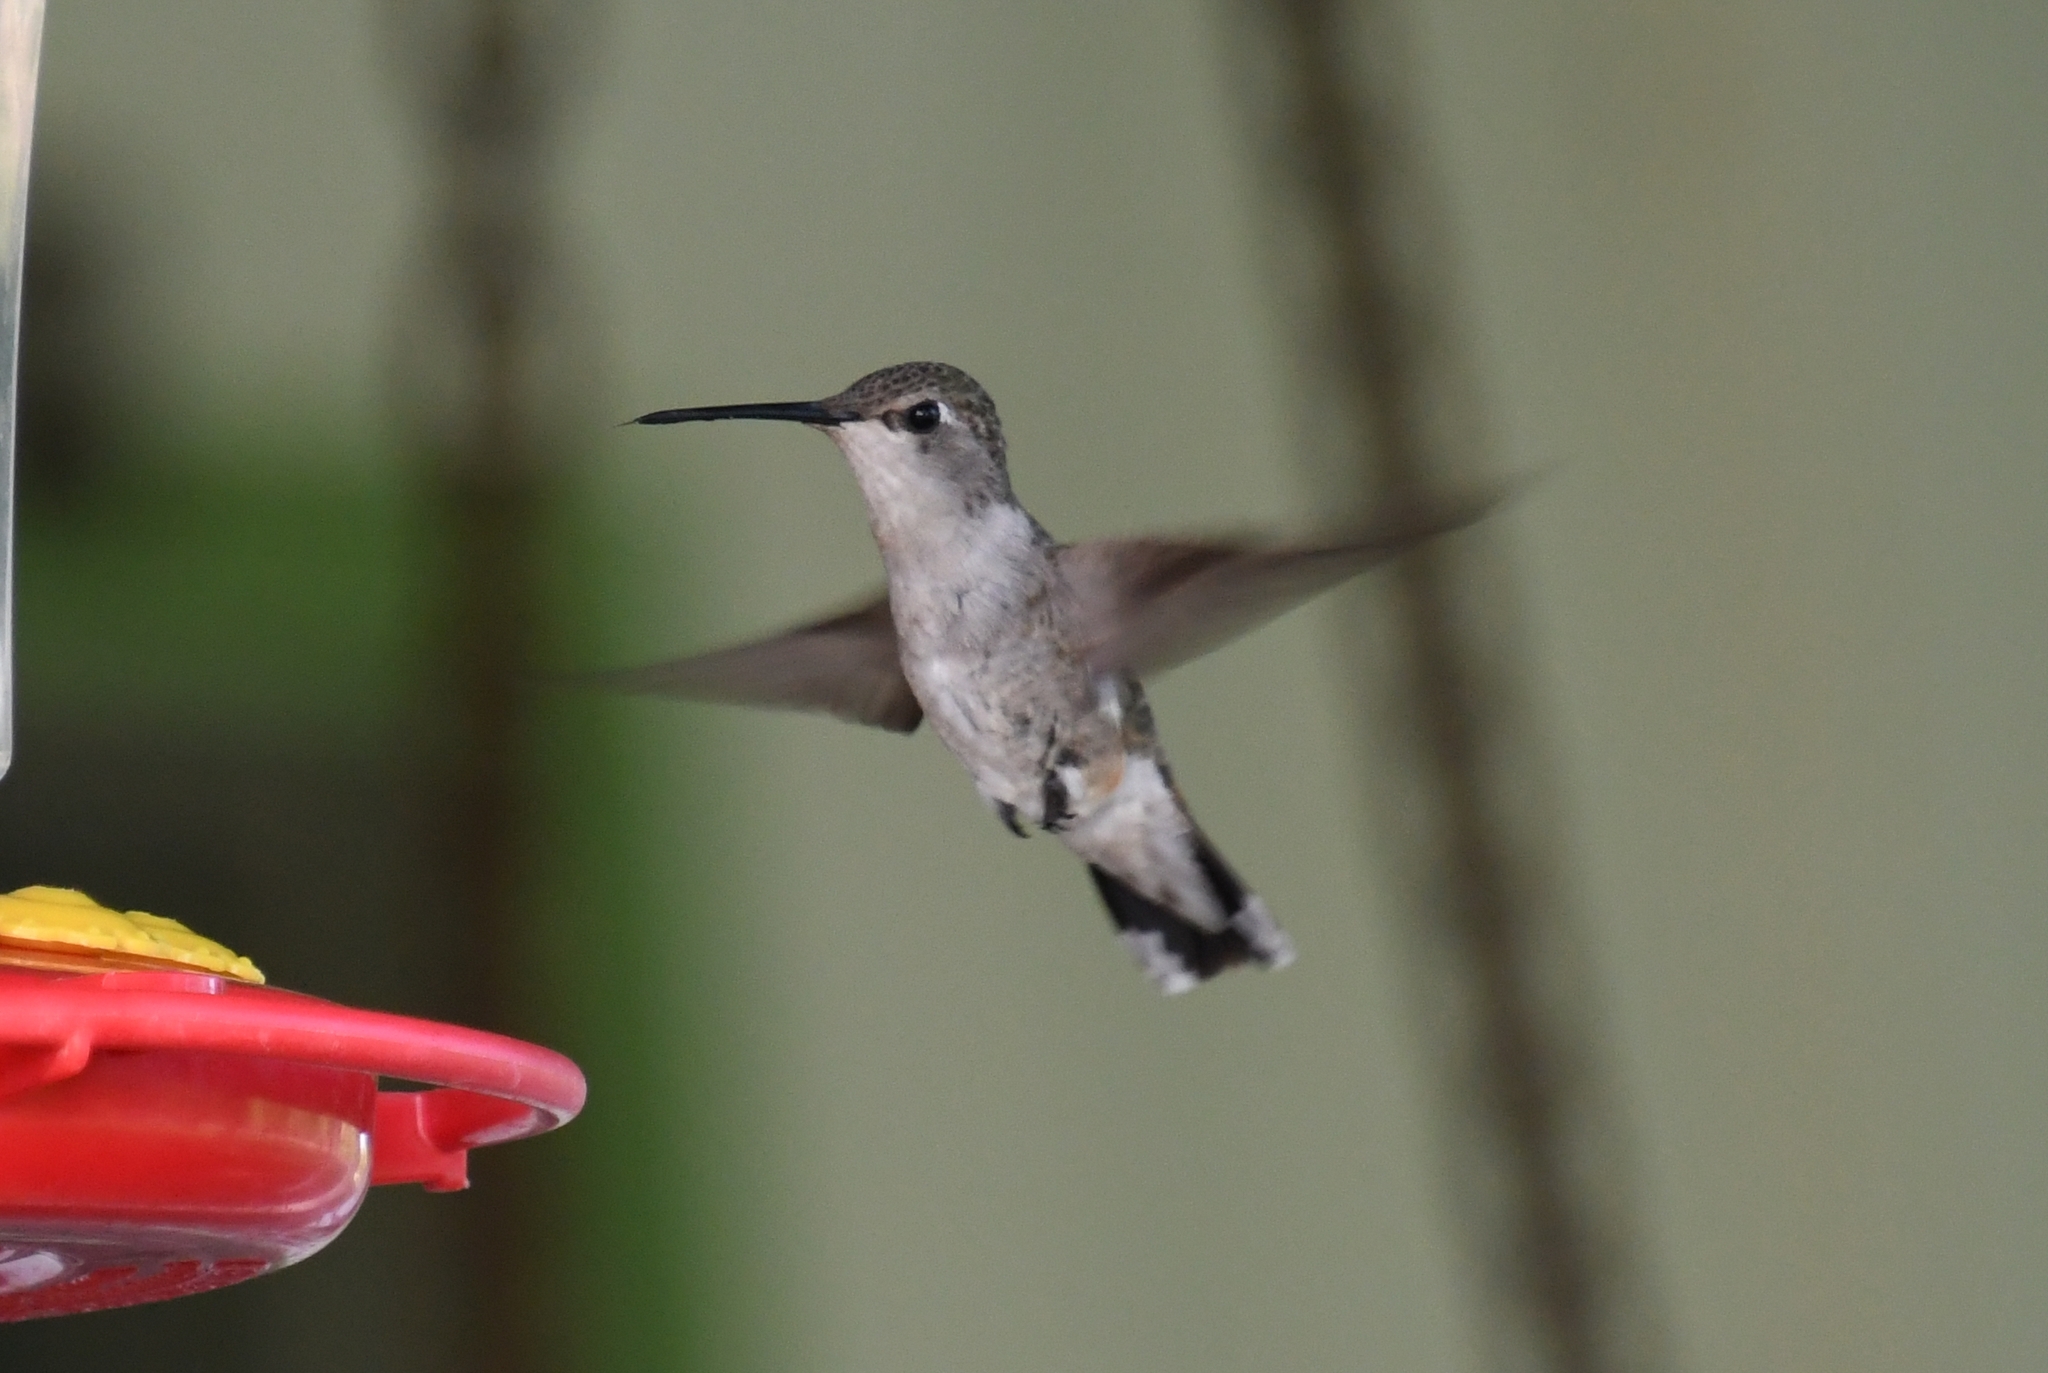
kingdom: Animalia
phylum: Chordata
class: Aves
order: Apodiformes
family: Trochilidae
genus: Archilochus
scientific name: Archilochus alexandri
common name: Black-chinned hummingbird
